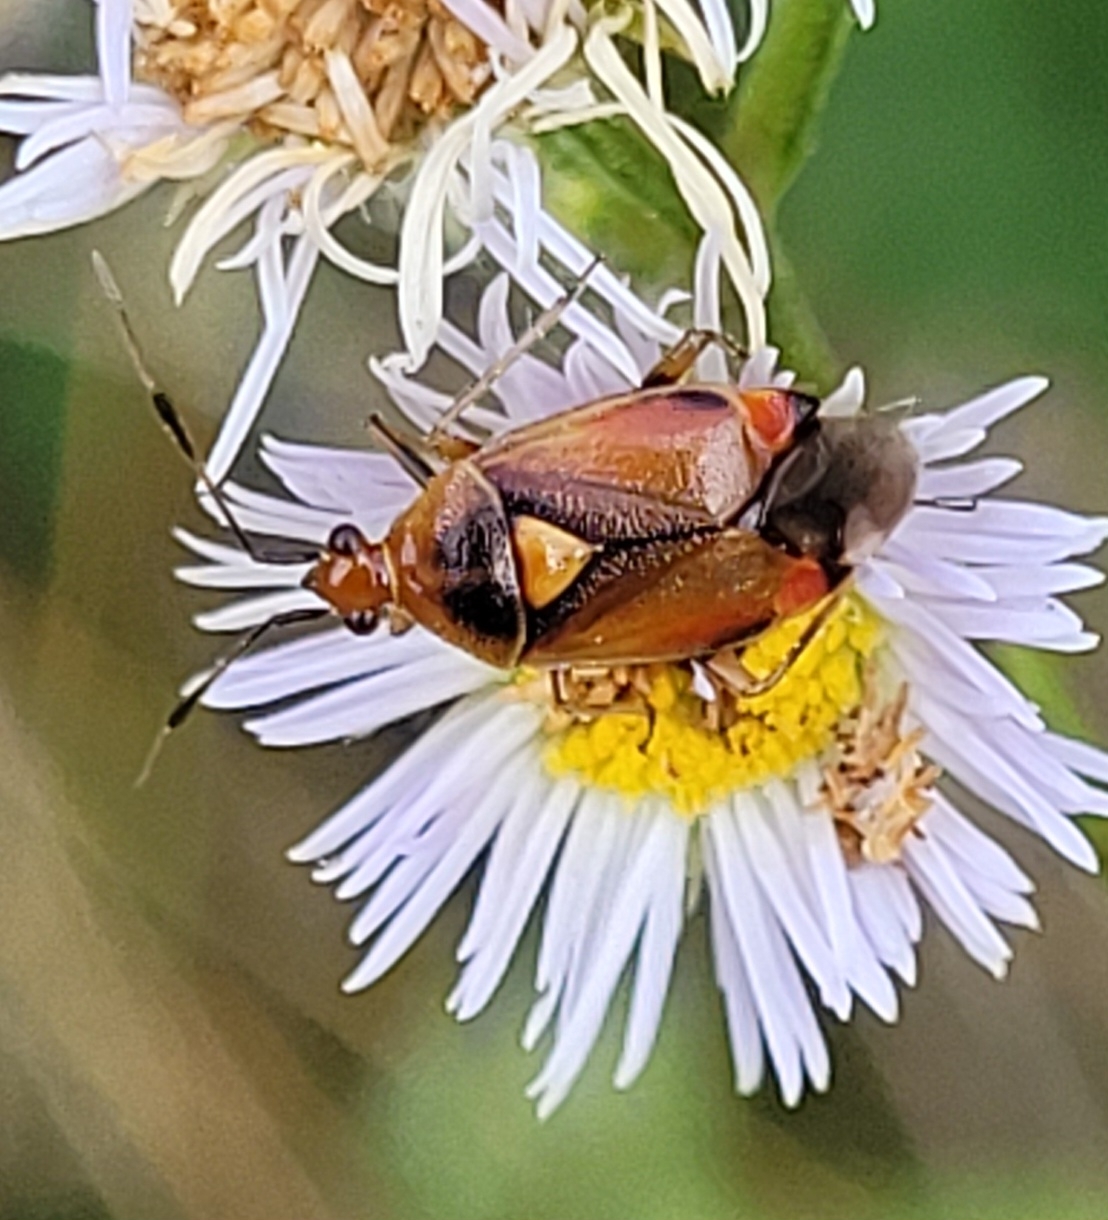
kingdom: Animalia
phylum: Arthropoda
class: Insecta
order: Hemiptera
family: Miridae
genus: Deraeocoris
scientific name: Deraeocoris ruber
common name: Plant bug
